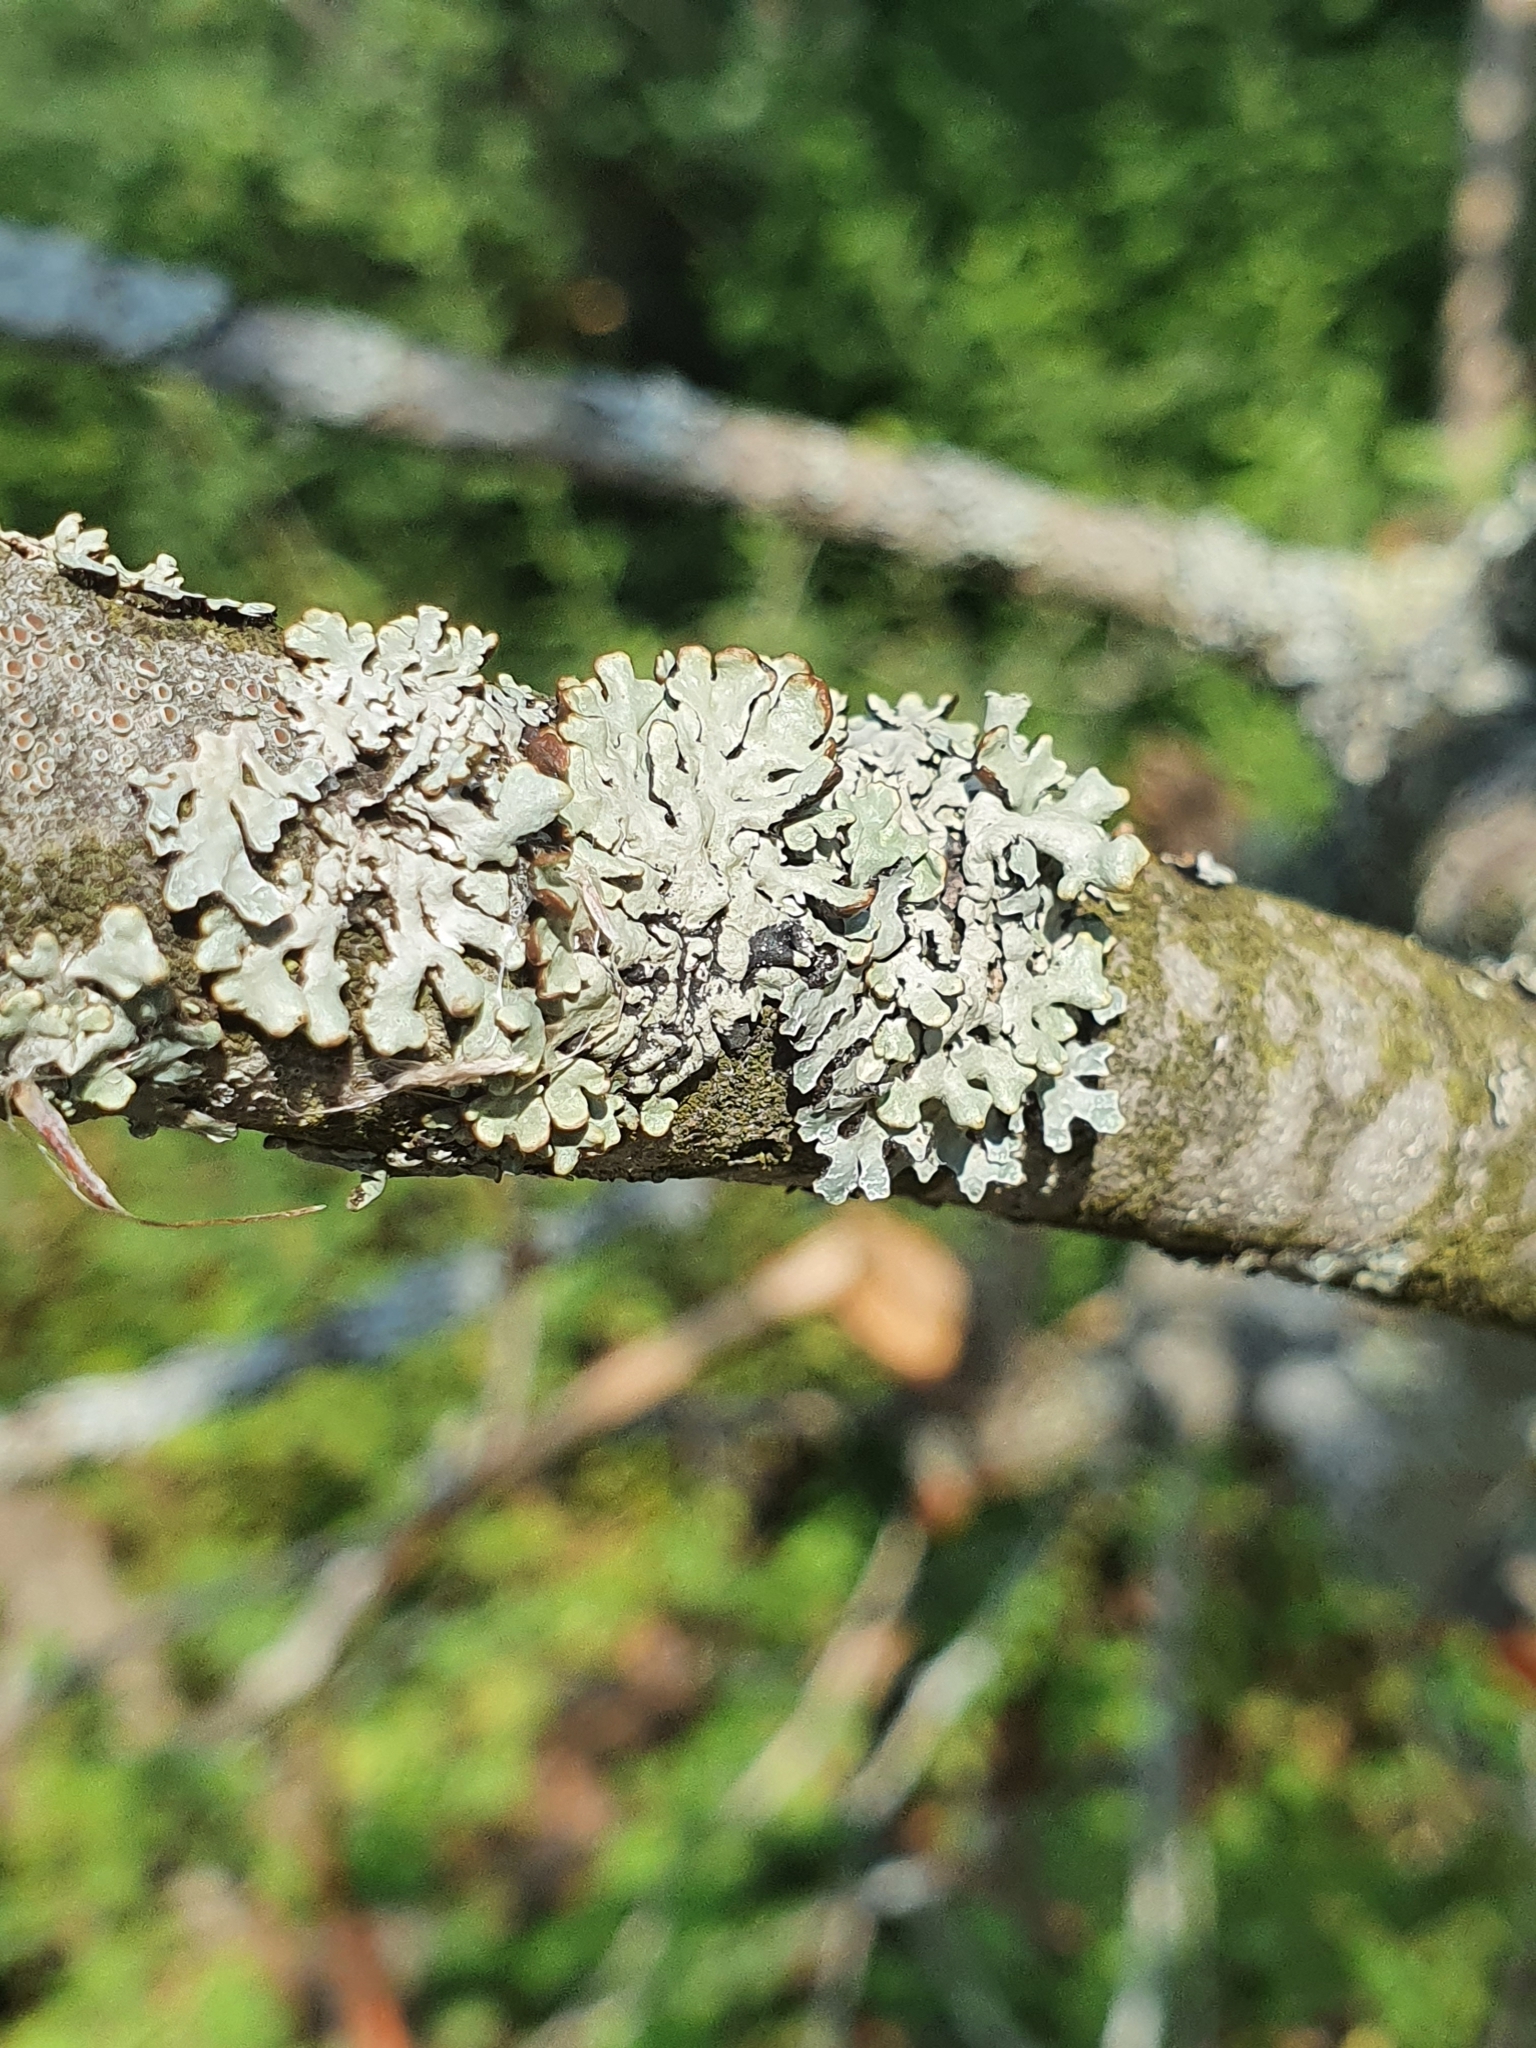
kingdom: Fungi
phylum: Ascomycota
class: Lecanoromycetes
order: Lecanorales
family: Parmeliaceae
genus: Hypogymnia
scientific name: Hypogymnia physodes
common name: Dark crottle
